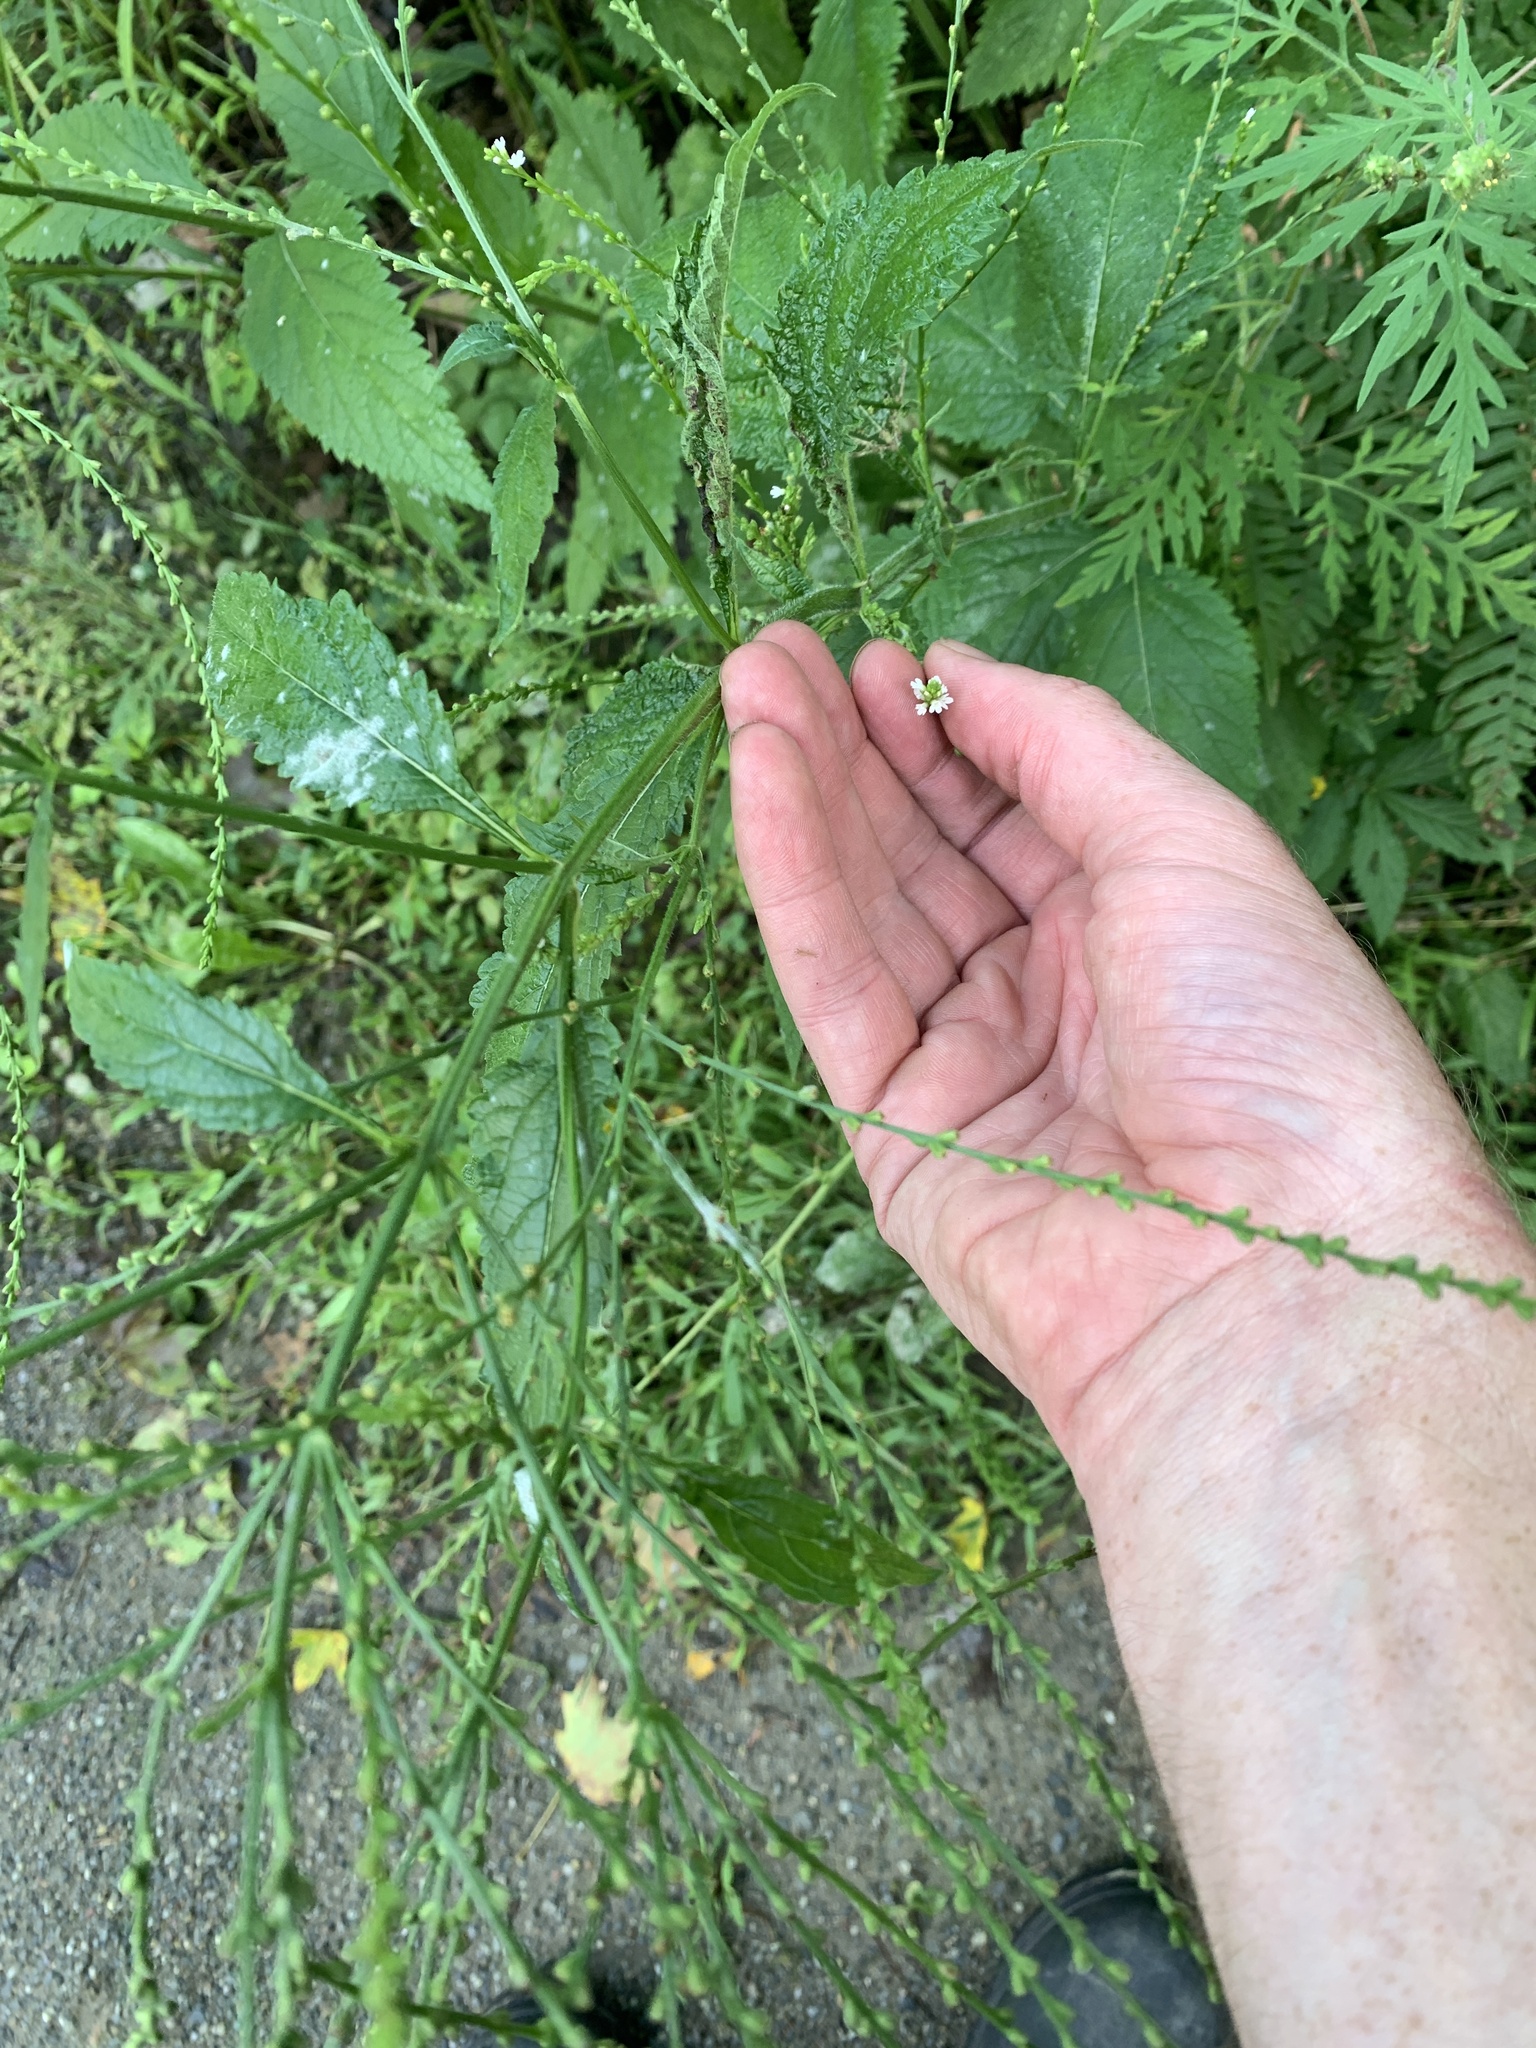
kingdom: Plantae
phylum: Tracheophyta
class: Magnoliopsida
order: Lamiales
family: Verbenaceae
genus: Verbena
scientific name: Verbena urticifolia
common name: Nettle-leaved vervain
